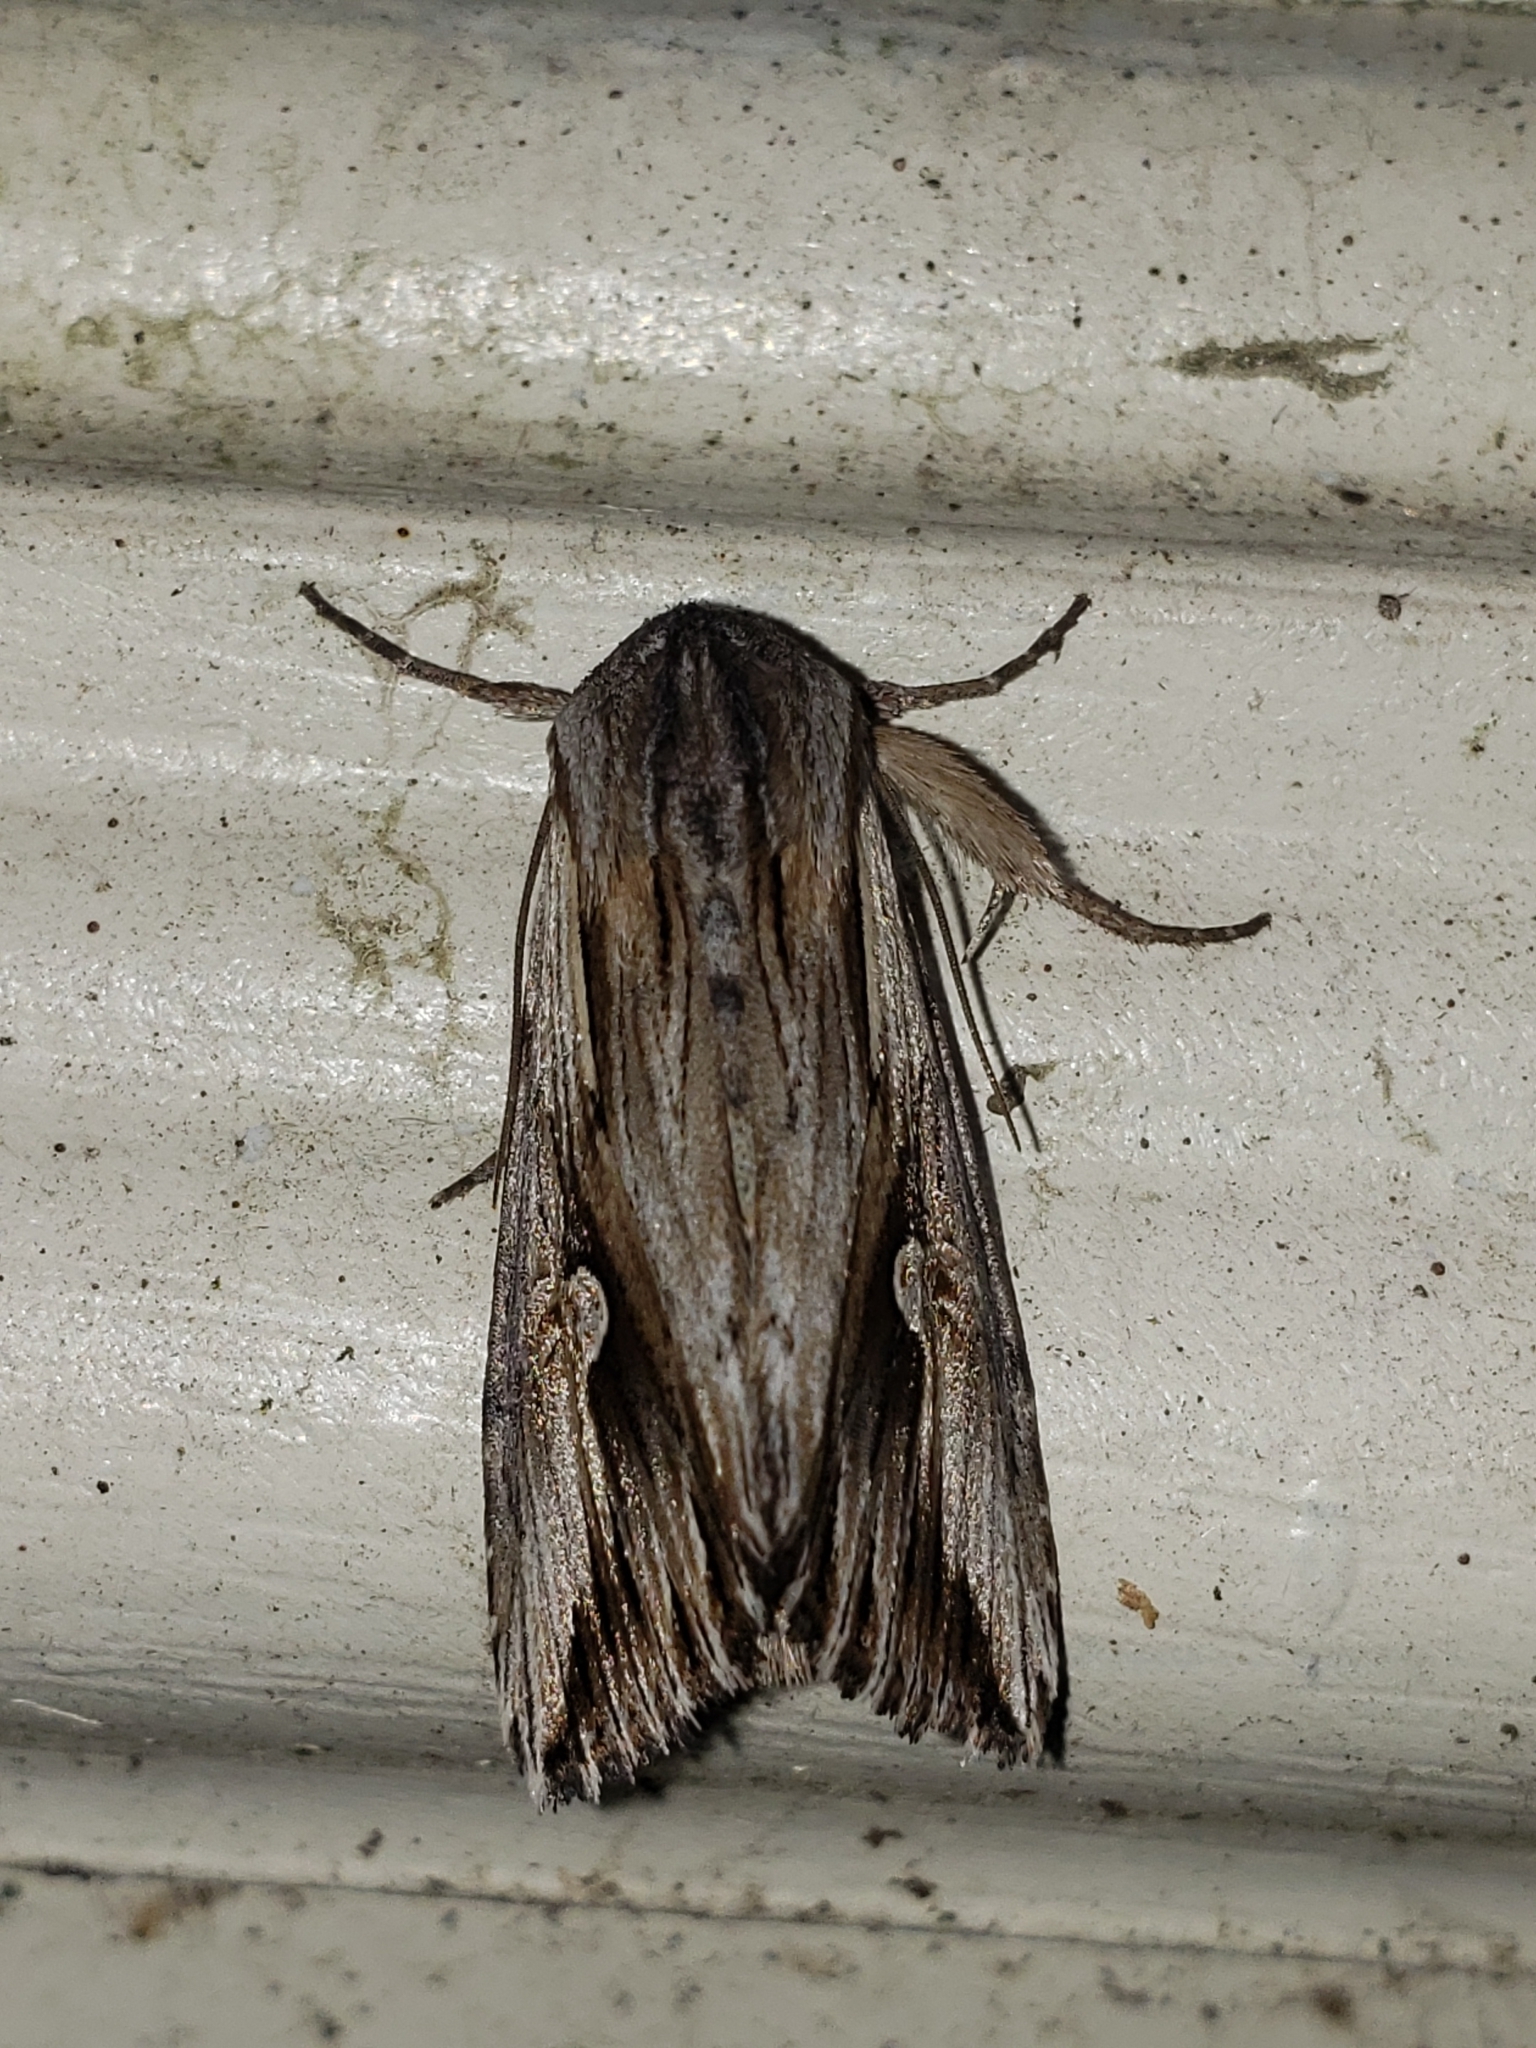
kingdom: Animalia
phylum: Arthropoda
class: Insecta
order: Lepidoptera
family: Noctuidae
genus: Nedra
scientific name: Nedra ramosula
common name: Gray half-spot
